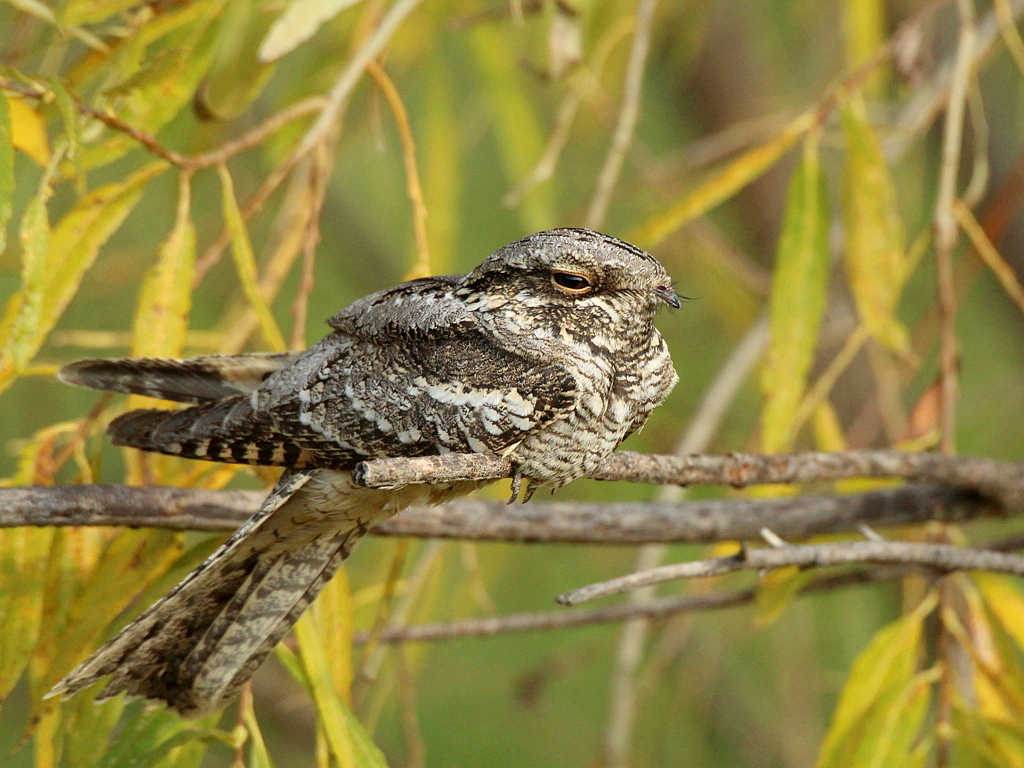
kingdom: Animalia
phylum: Chordata
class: Aves
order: Caprimulgiformes
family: Caprimulgidae
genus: Caprimulgus
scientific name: Caprimulgus europaeus
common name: European nightjar
